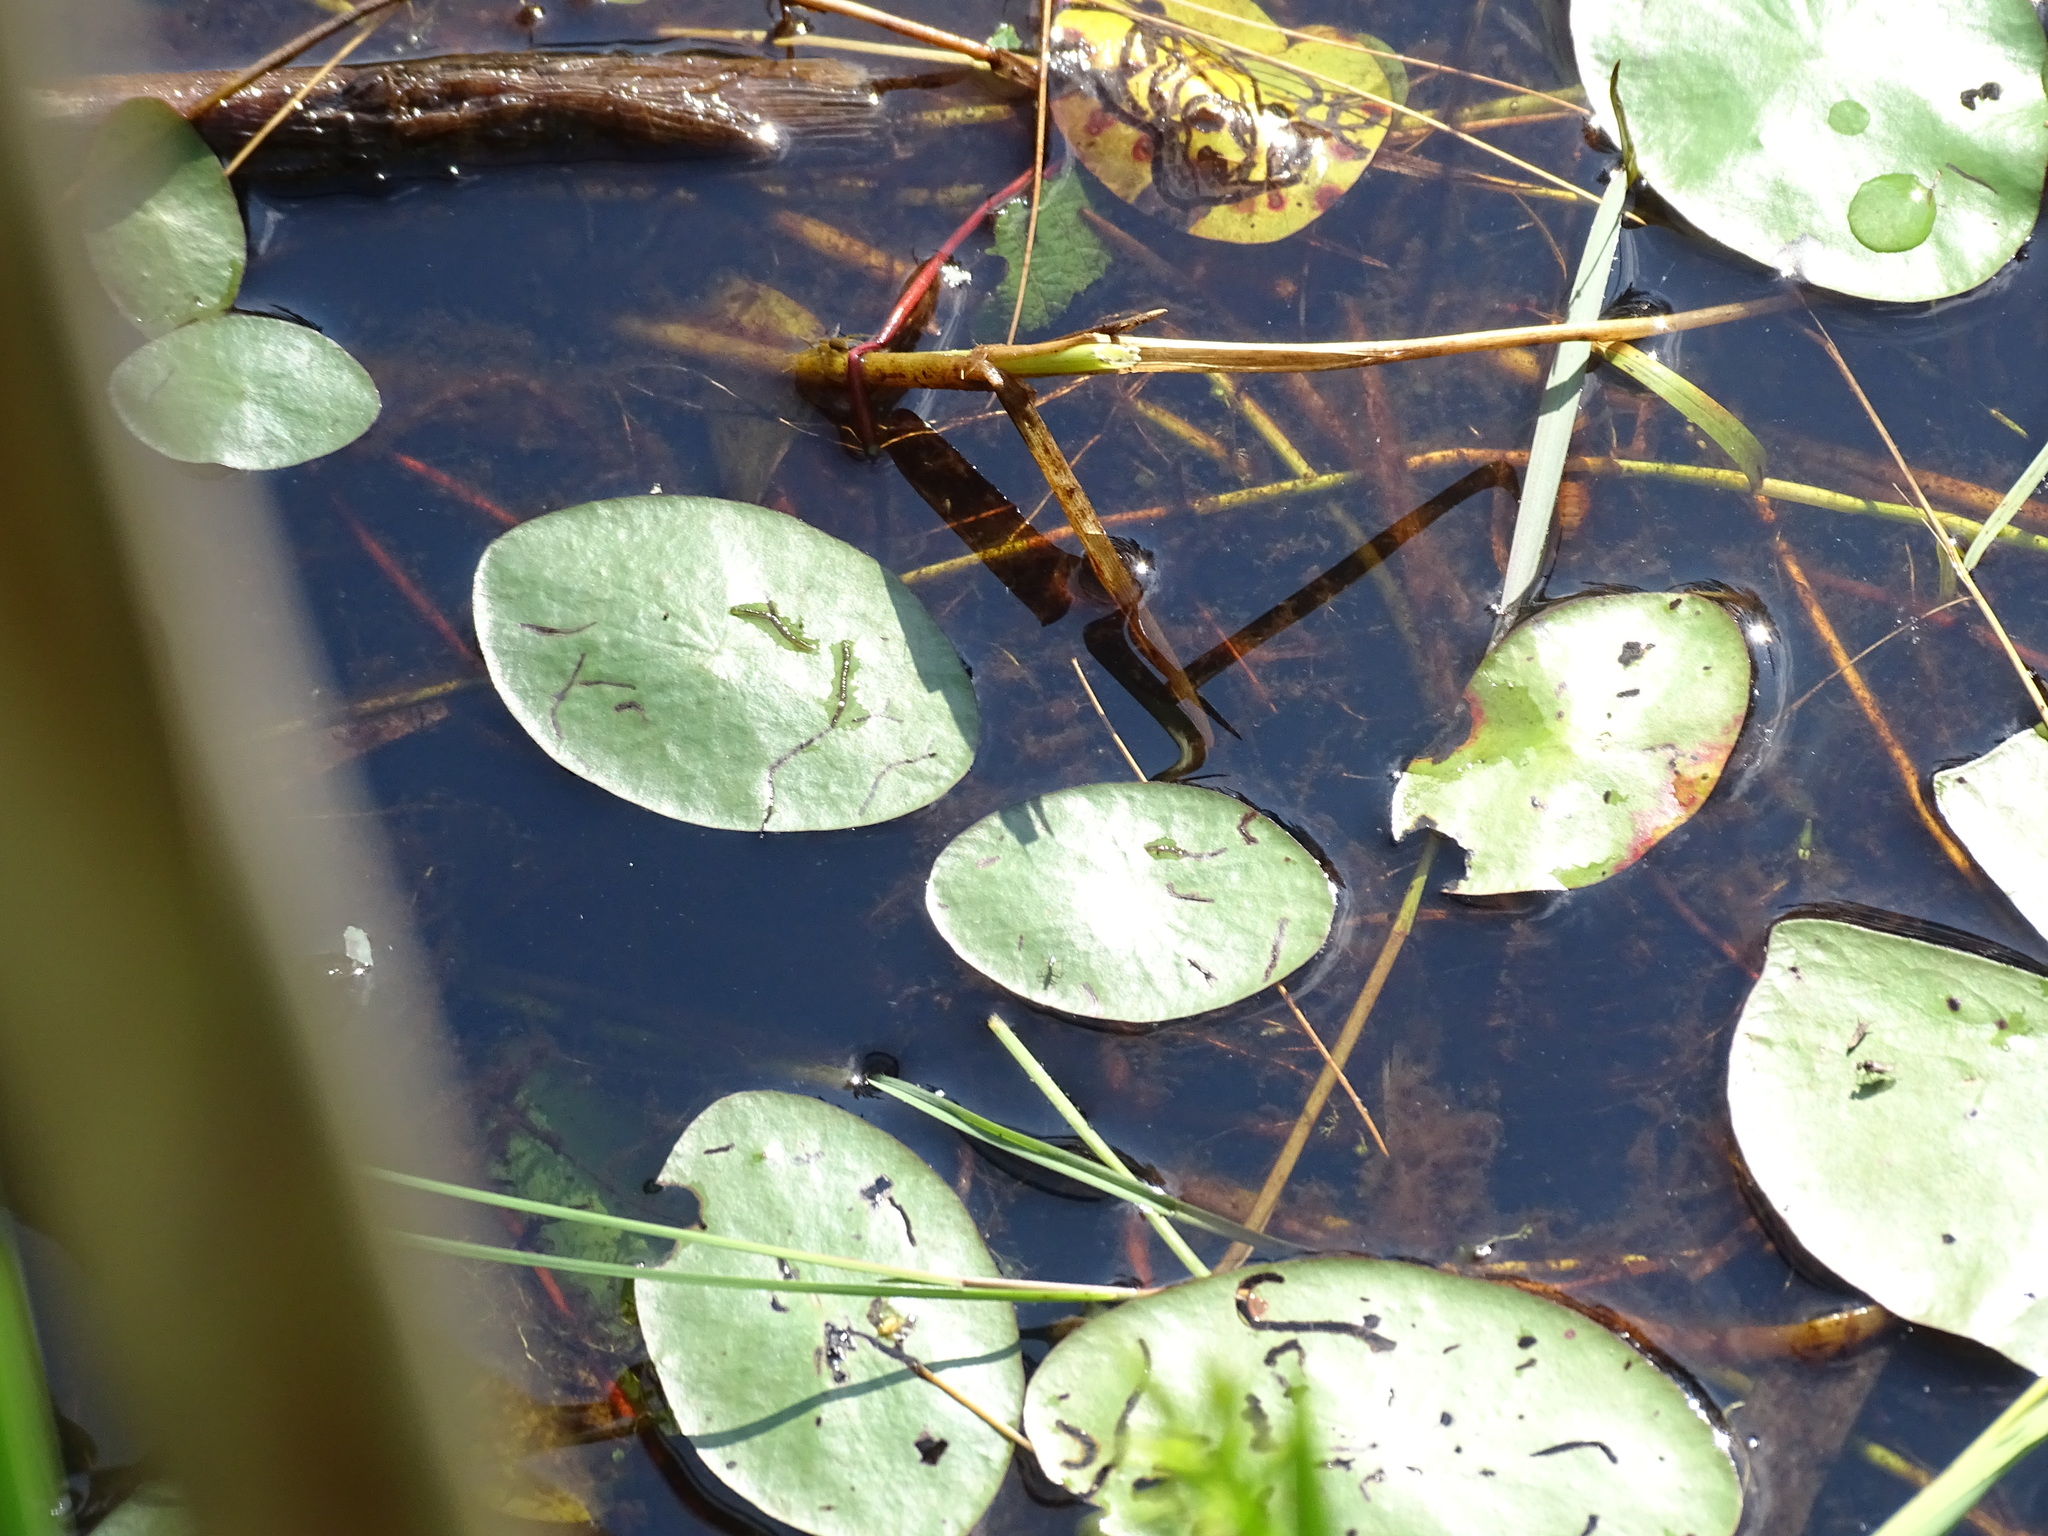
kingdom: Plantae
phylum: Tracheophyta
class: Magnoliopsida
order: Nymphaeales
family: Cabombaceae
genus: Brasenia
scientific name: Brasenia schreberi
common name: Water-shield
